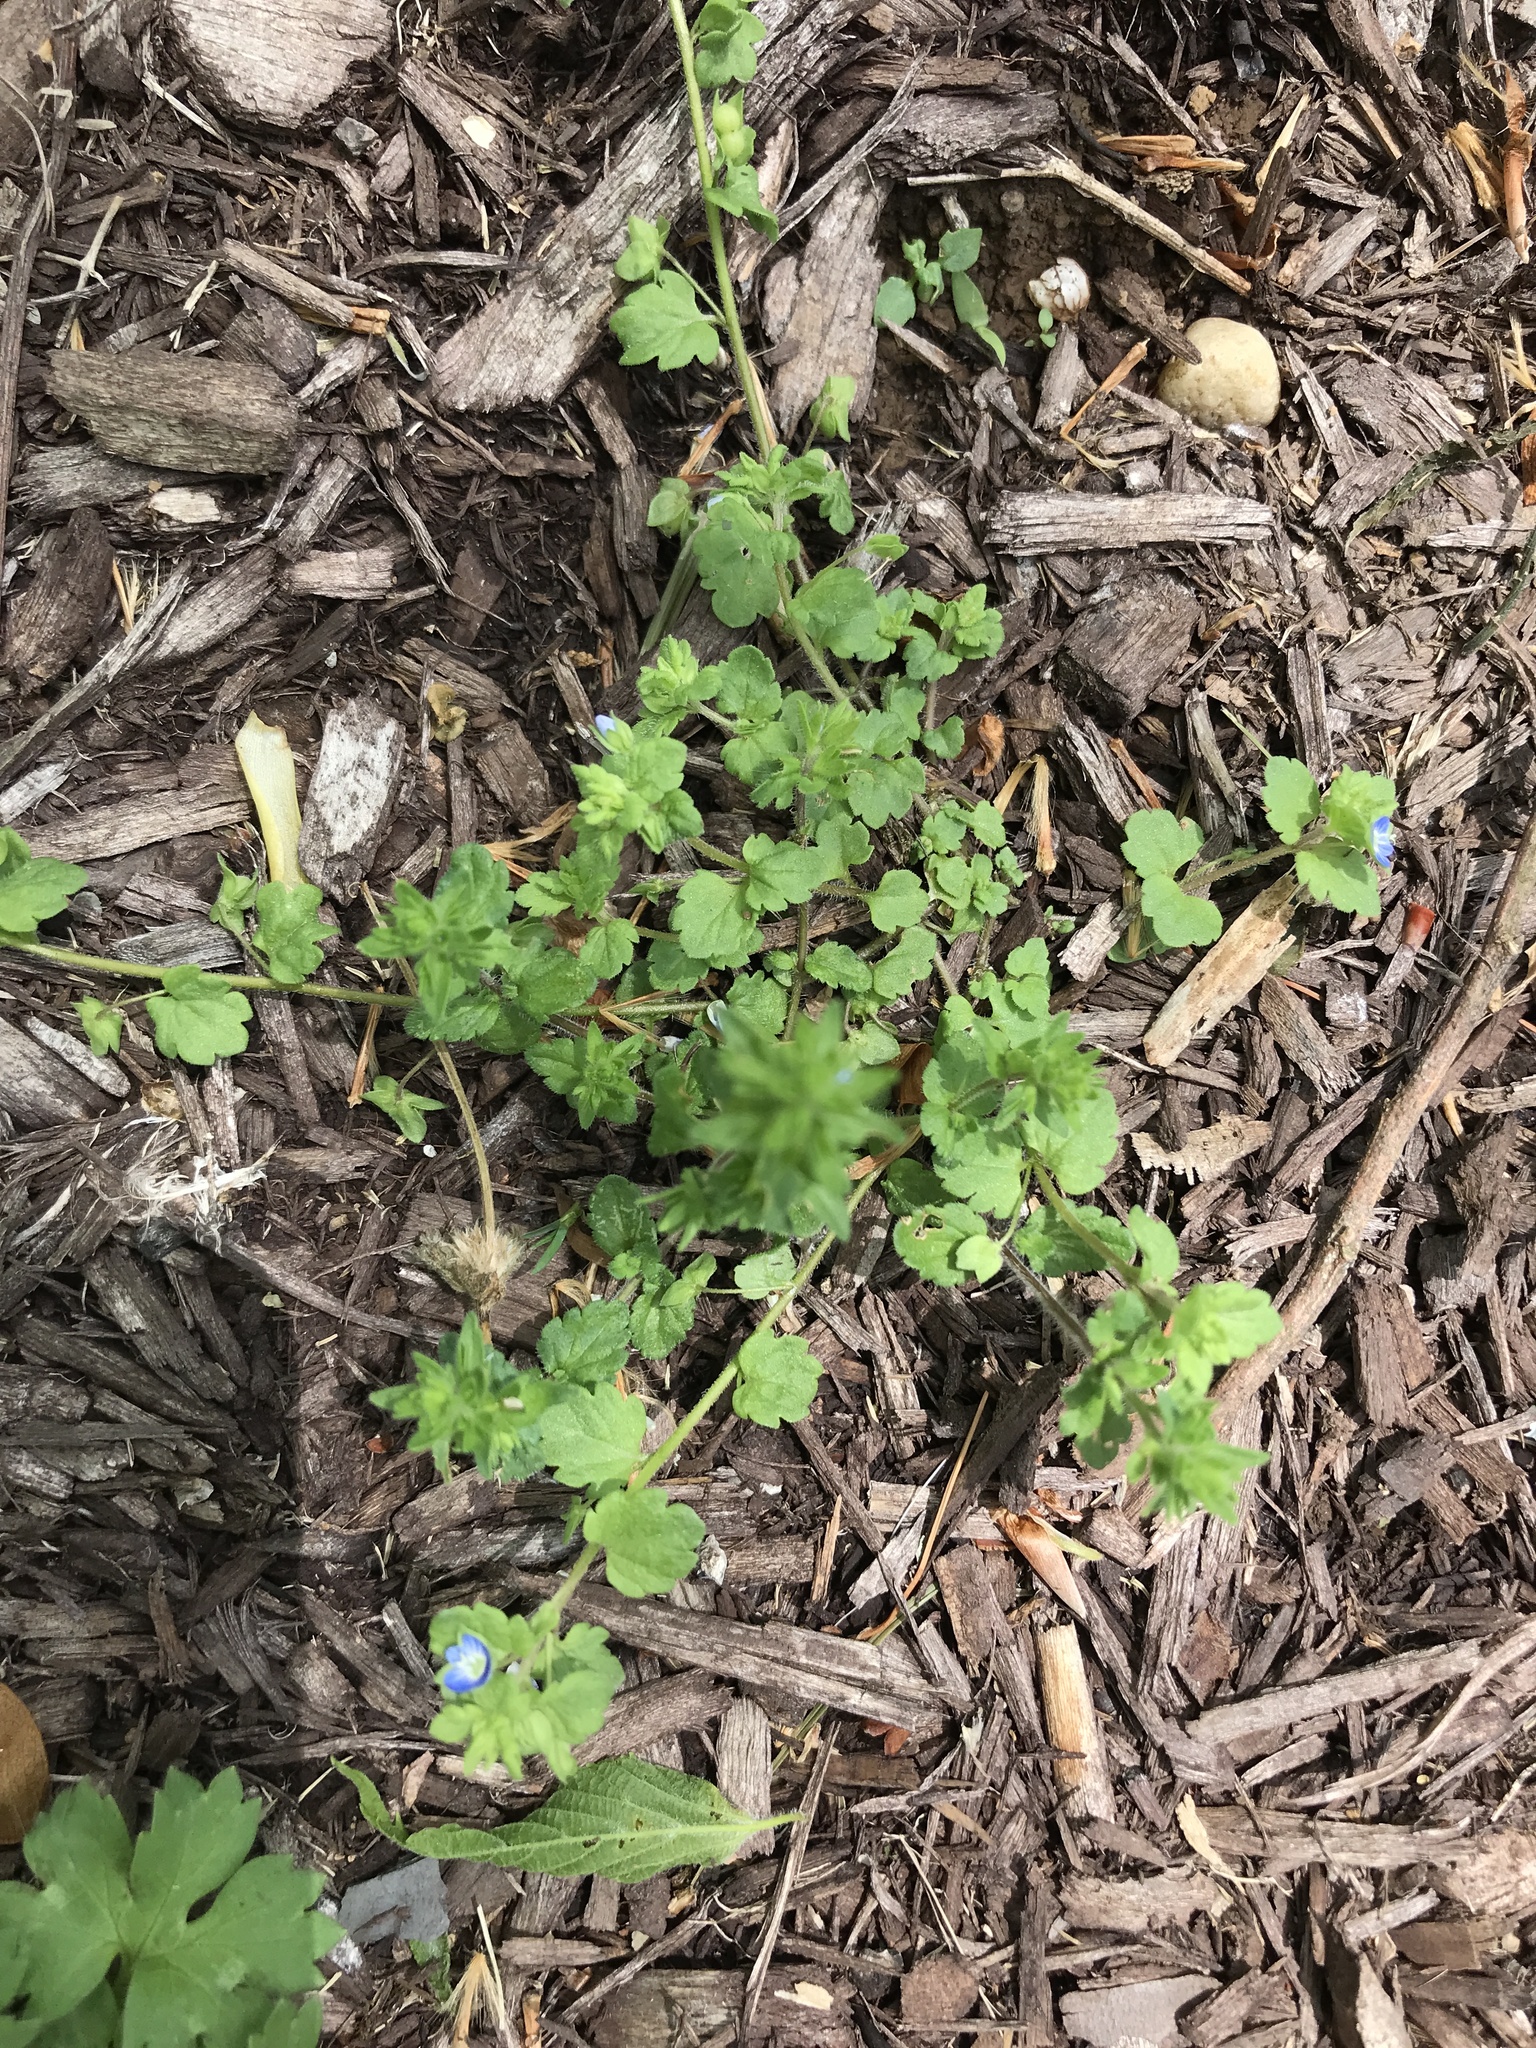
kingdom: Plantae
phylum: Tracheophyta
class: Magnoliopsida
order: Lamiales
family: Plantaginaceae
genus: Veronica
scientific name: Veronica arvensis
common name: Corn speedwell
